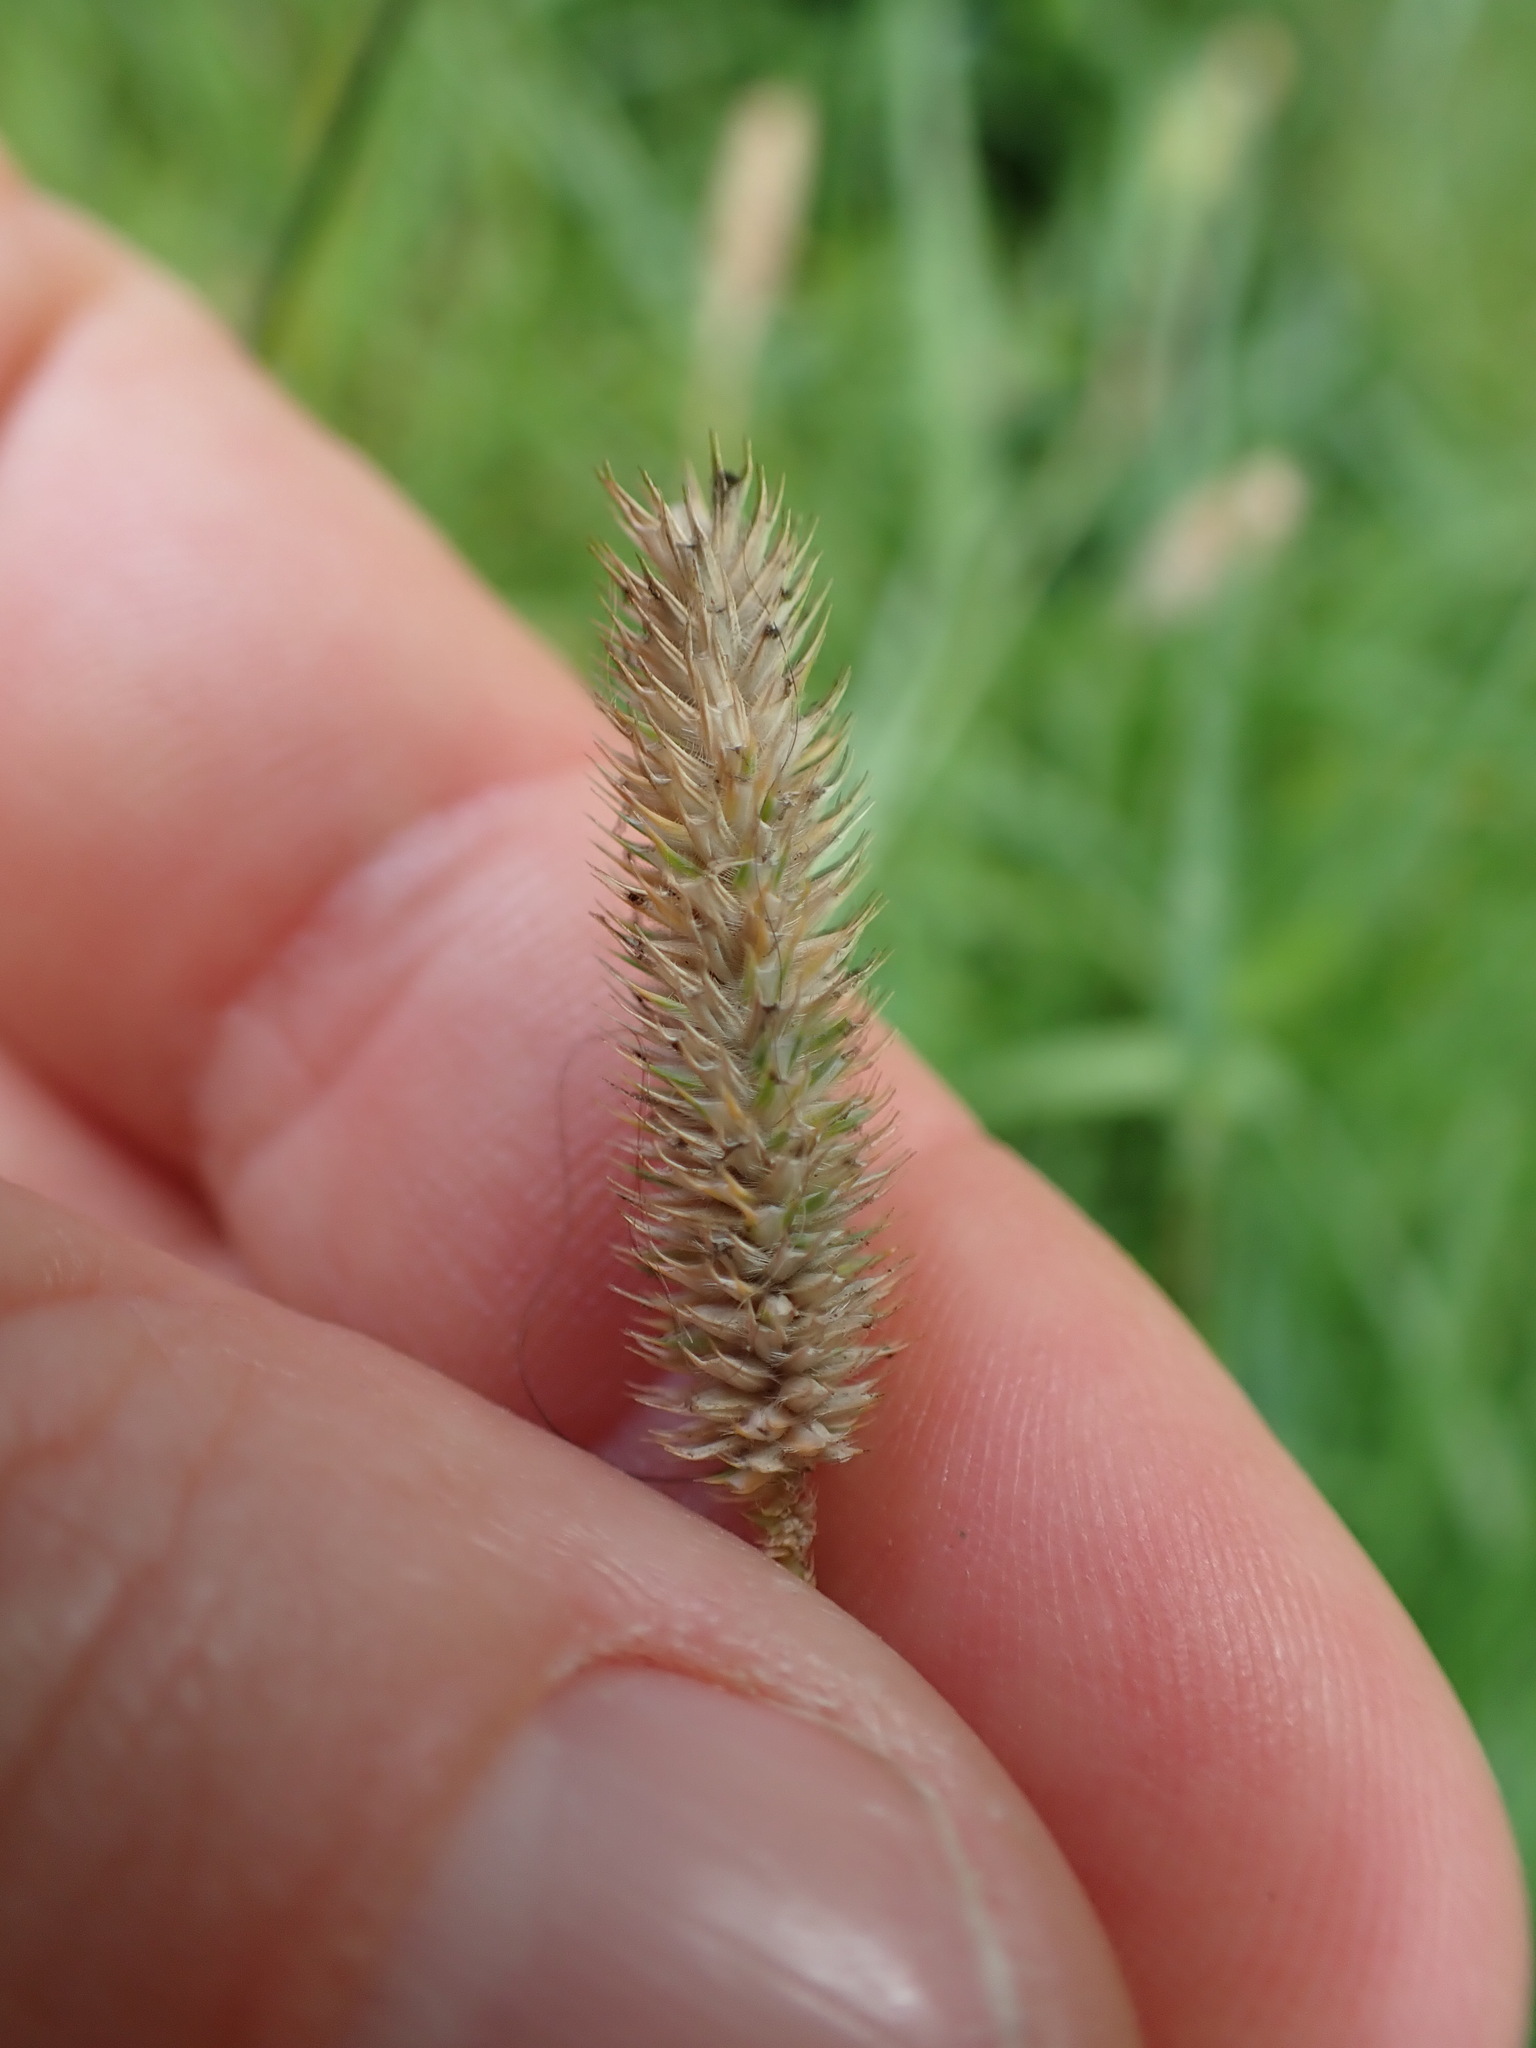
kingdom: Plantae
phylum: Tracheophyta
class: Liliopsida
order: Poales
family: Poaceae
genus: Phleum
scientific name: Phleum bertolonii
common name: Smaller cat's-tail
